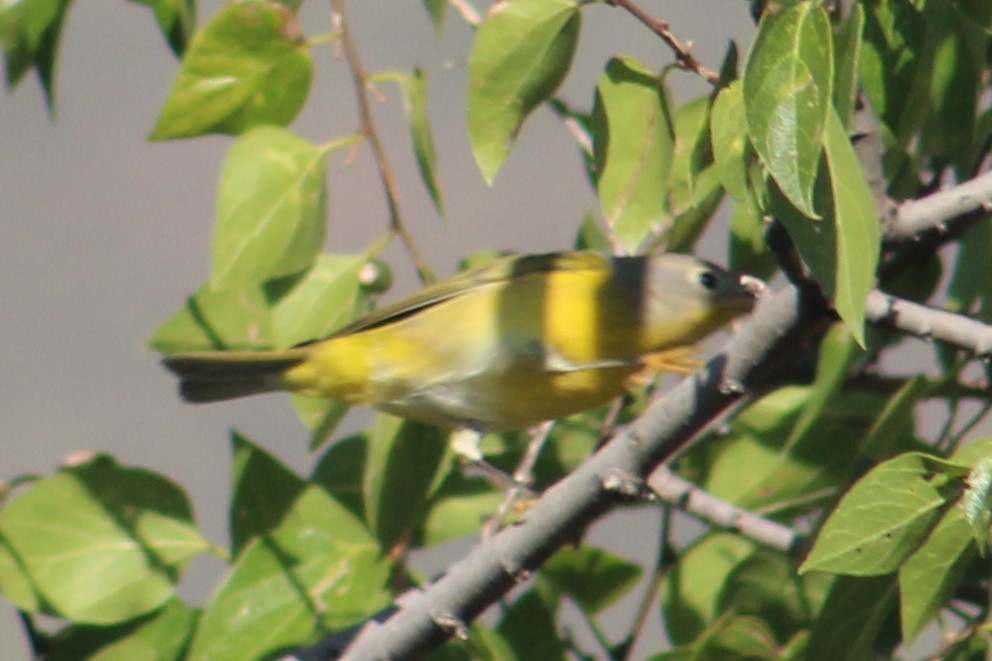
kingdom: Animalia
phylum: Chordata
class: Aves
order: Passeriformes
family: Parulidae
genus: Leiothlypis
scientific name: Leiothlypis ruficapilla
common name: Nashville warbler
